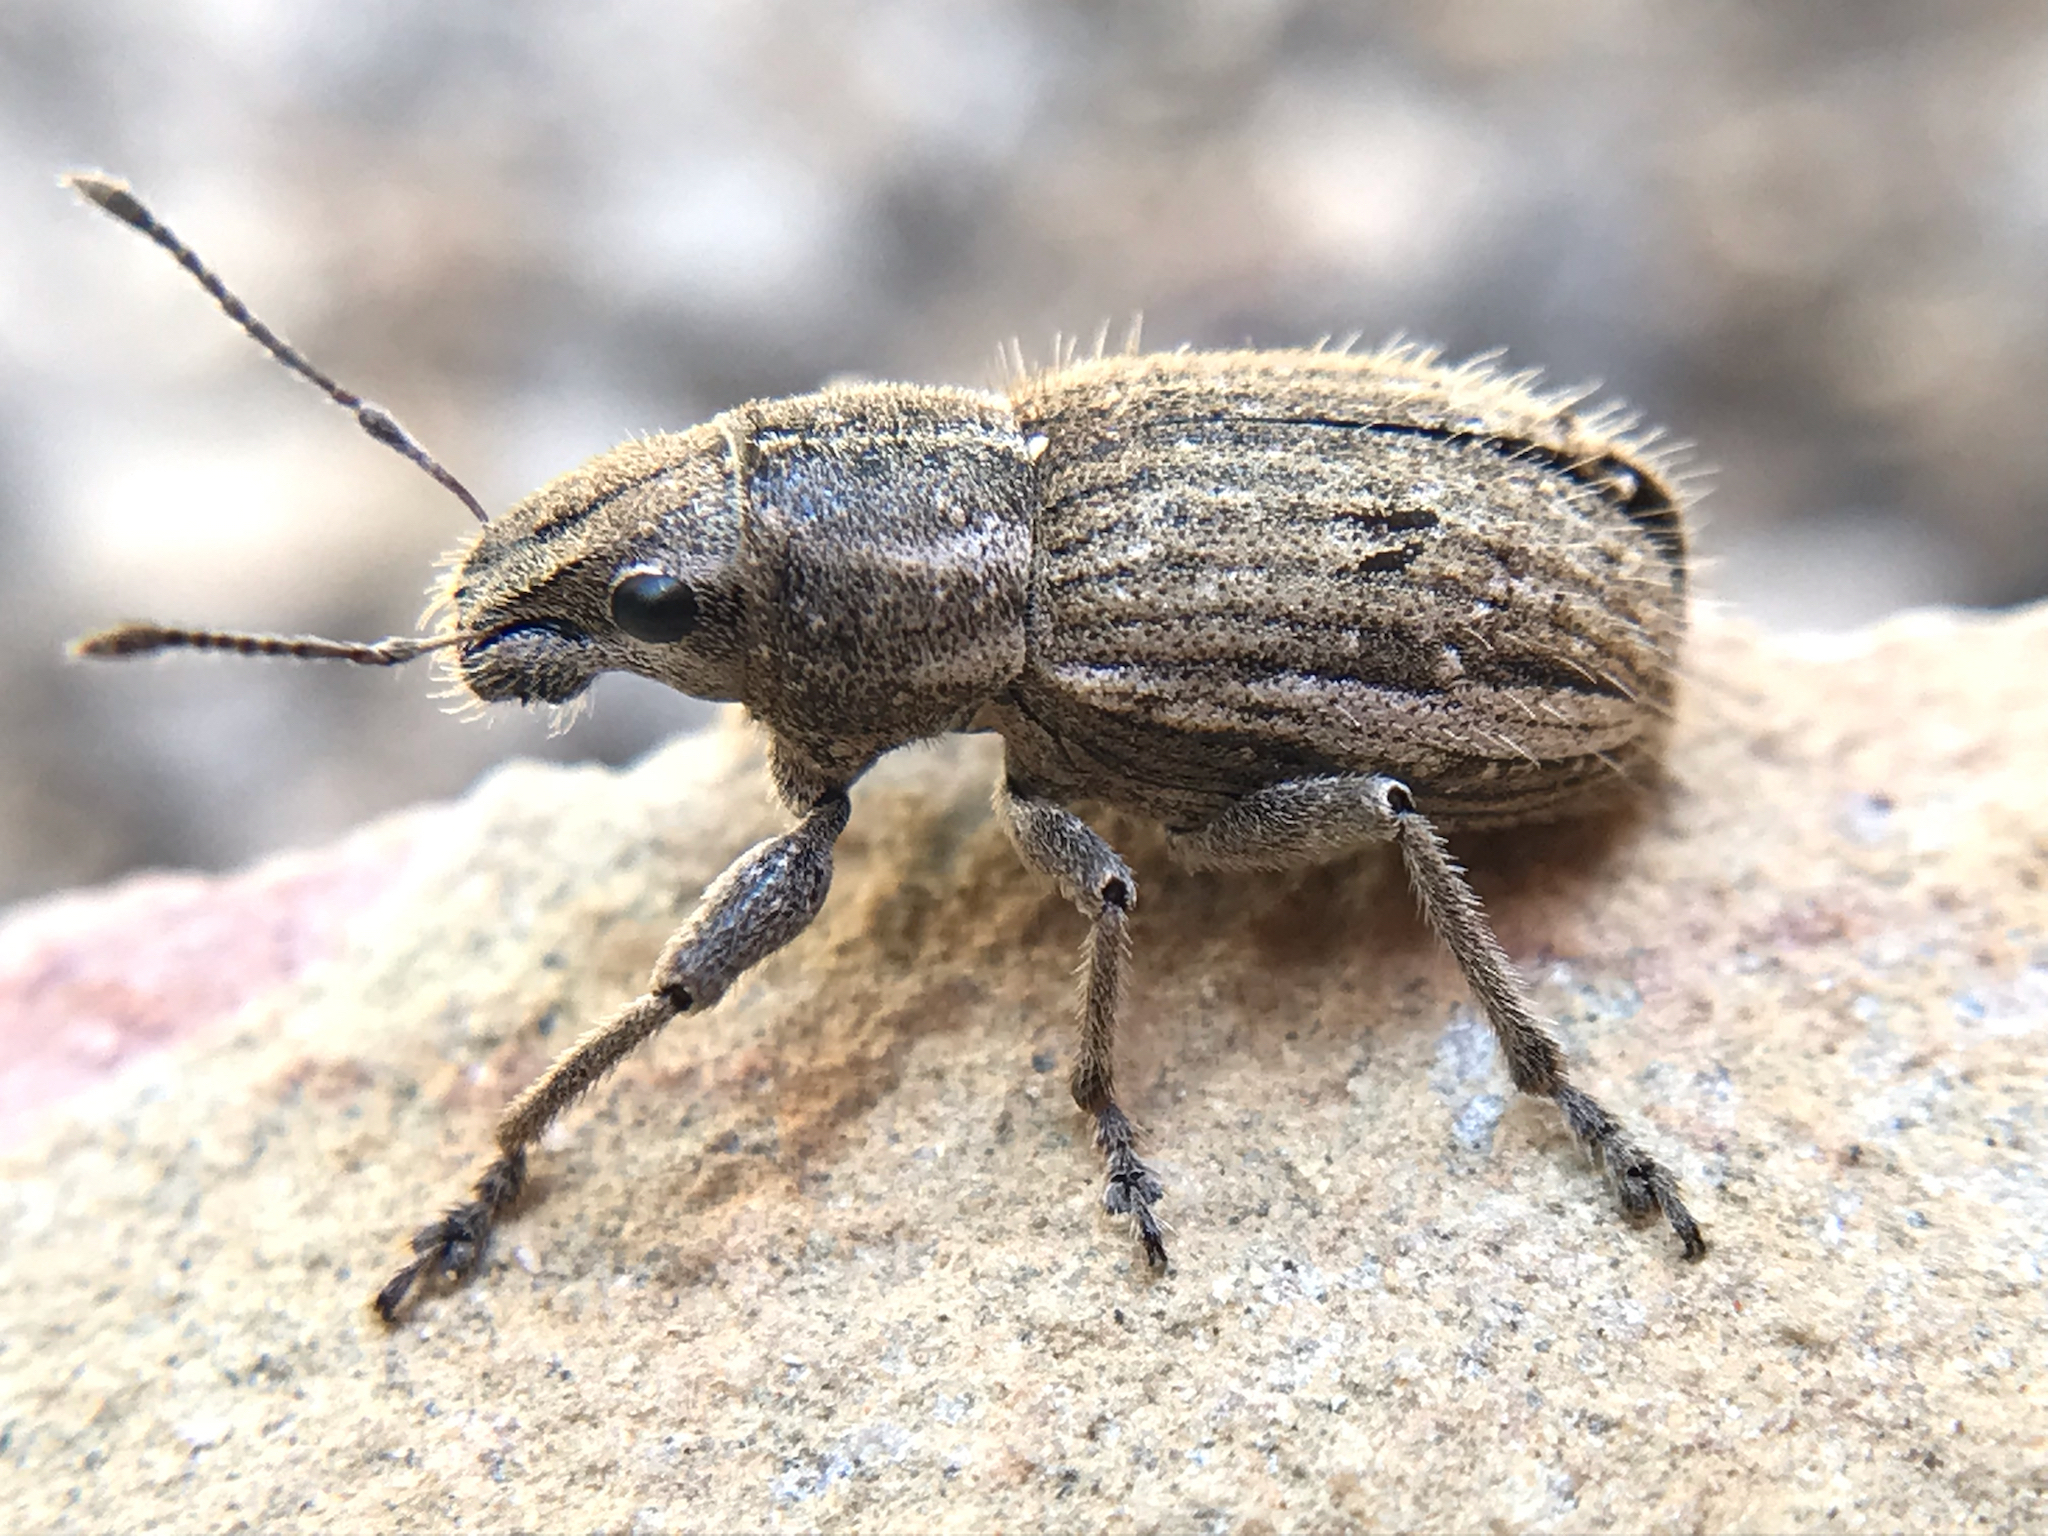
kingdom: Animalia
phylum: Arthropoda
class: Insecta
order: Coleoptera
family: Curculionidae
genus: Naupactus
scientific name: Naupactus leucoloma
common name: Whitefringed beetle
